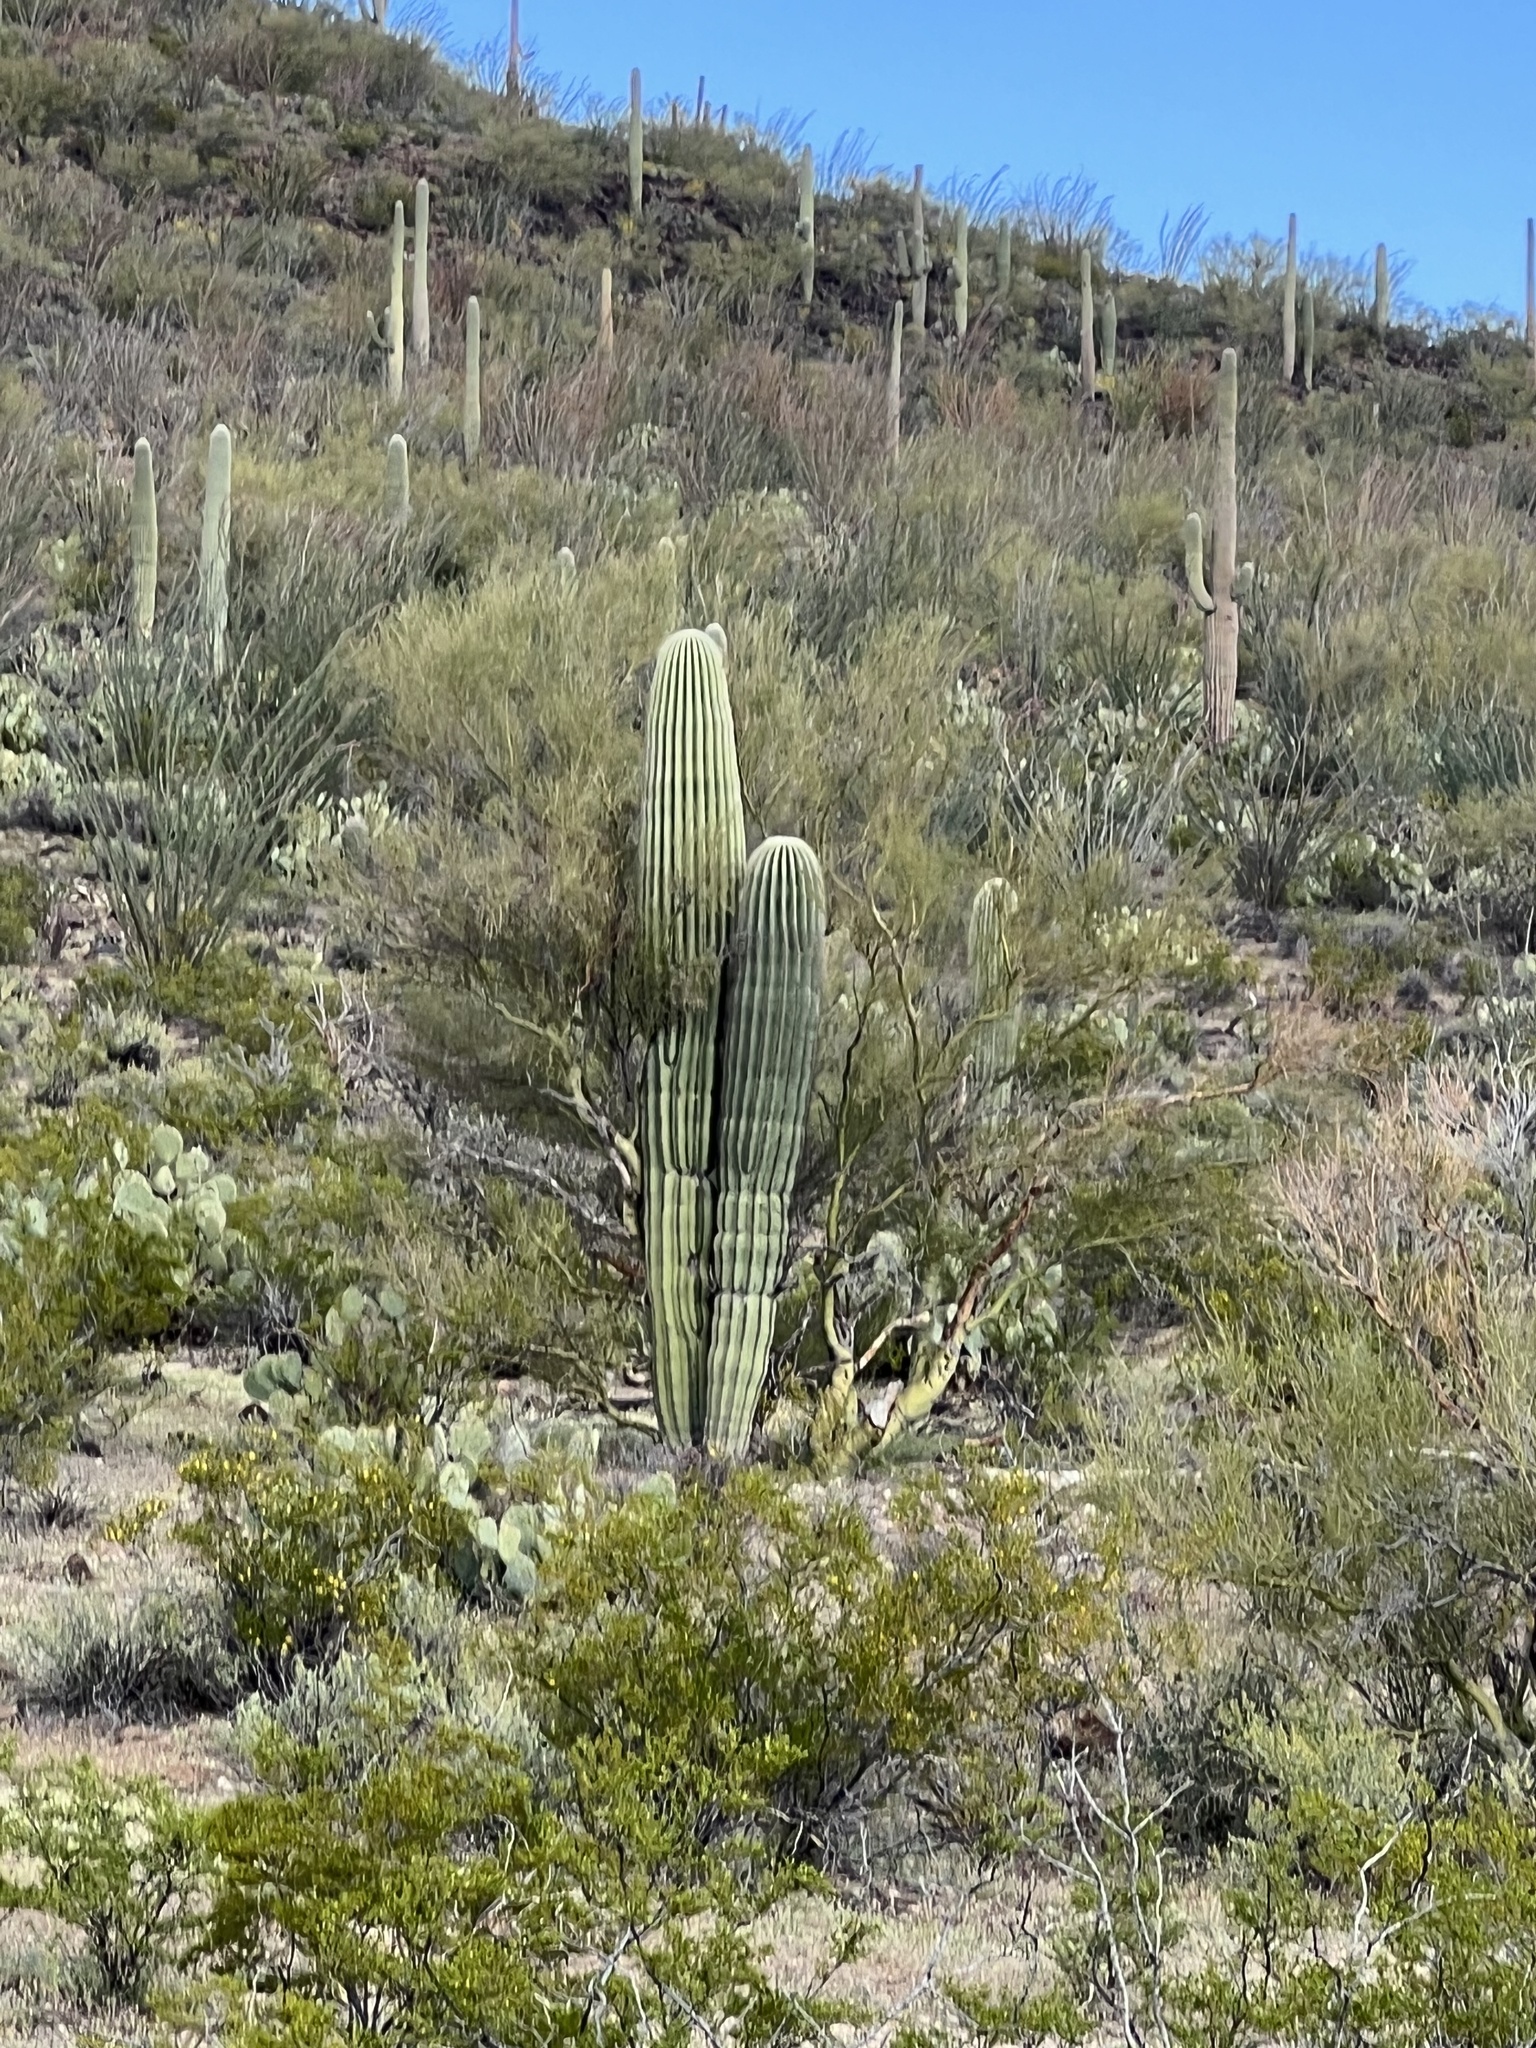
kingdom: Plantae
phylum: Tracheophyta
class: Magnoliopsida
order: Caryophyllales
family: Cactaceae
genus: Carnegiea
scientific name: Carnegiea gigantea
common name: Saguaro
